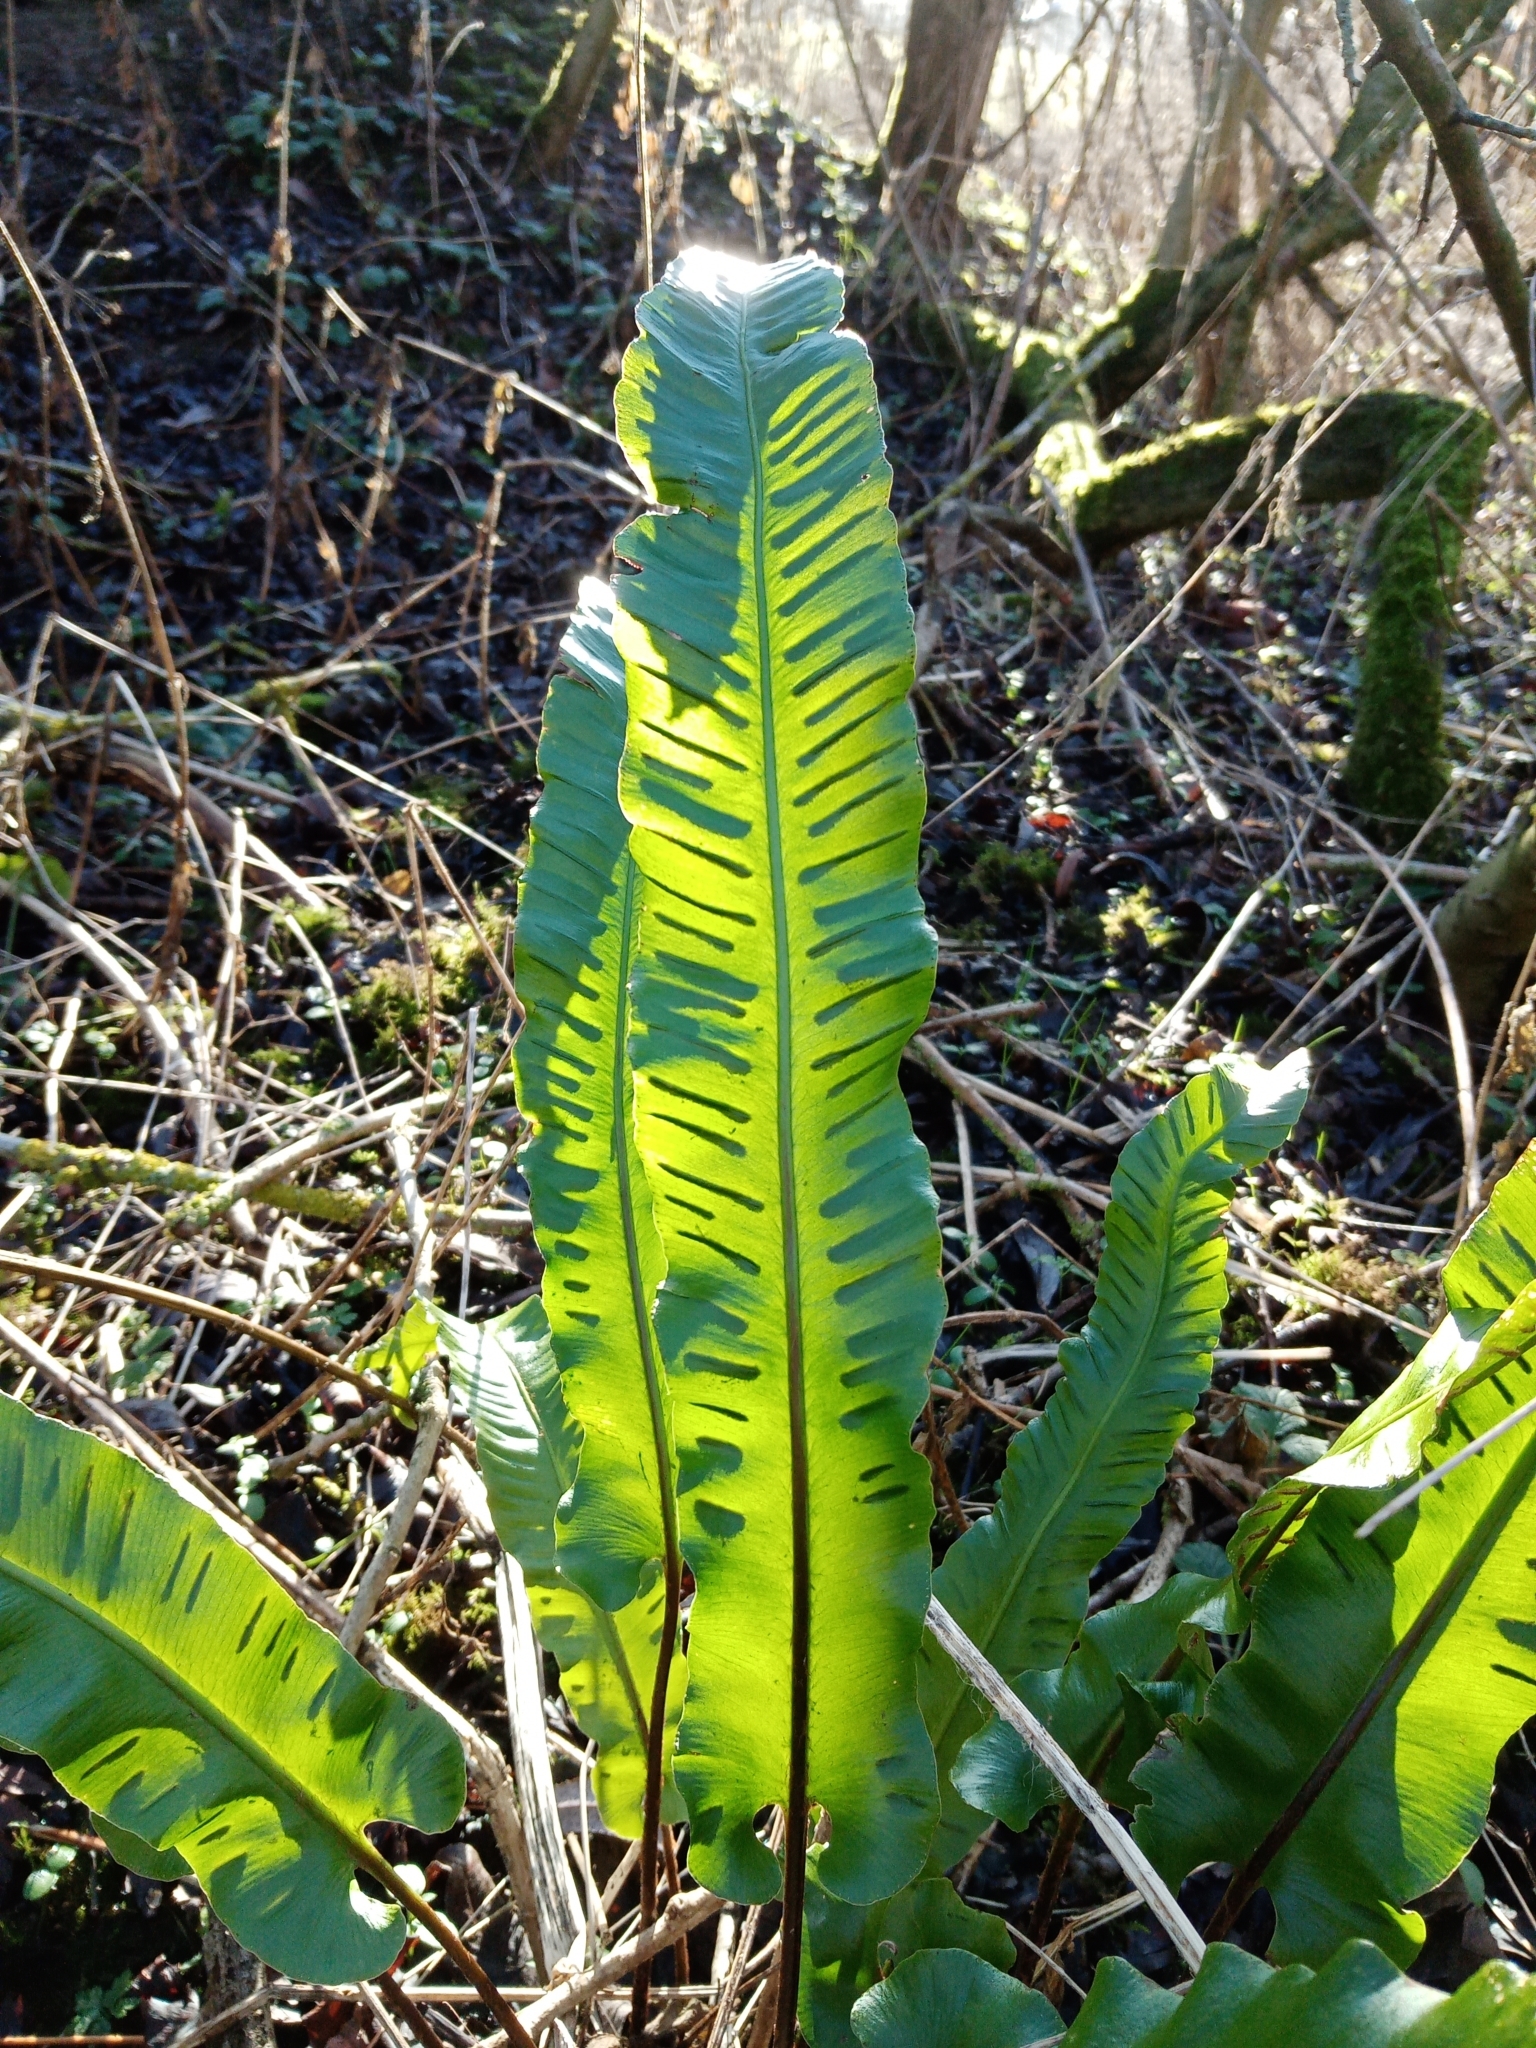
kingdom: Plantae
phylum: Tracheophyta
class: Polypodiopsida
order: Polypodiales
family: Aspleniaceae
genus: Asplenium
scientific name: Asplenium scolopendrium
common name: Hart's-tongue fern
